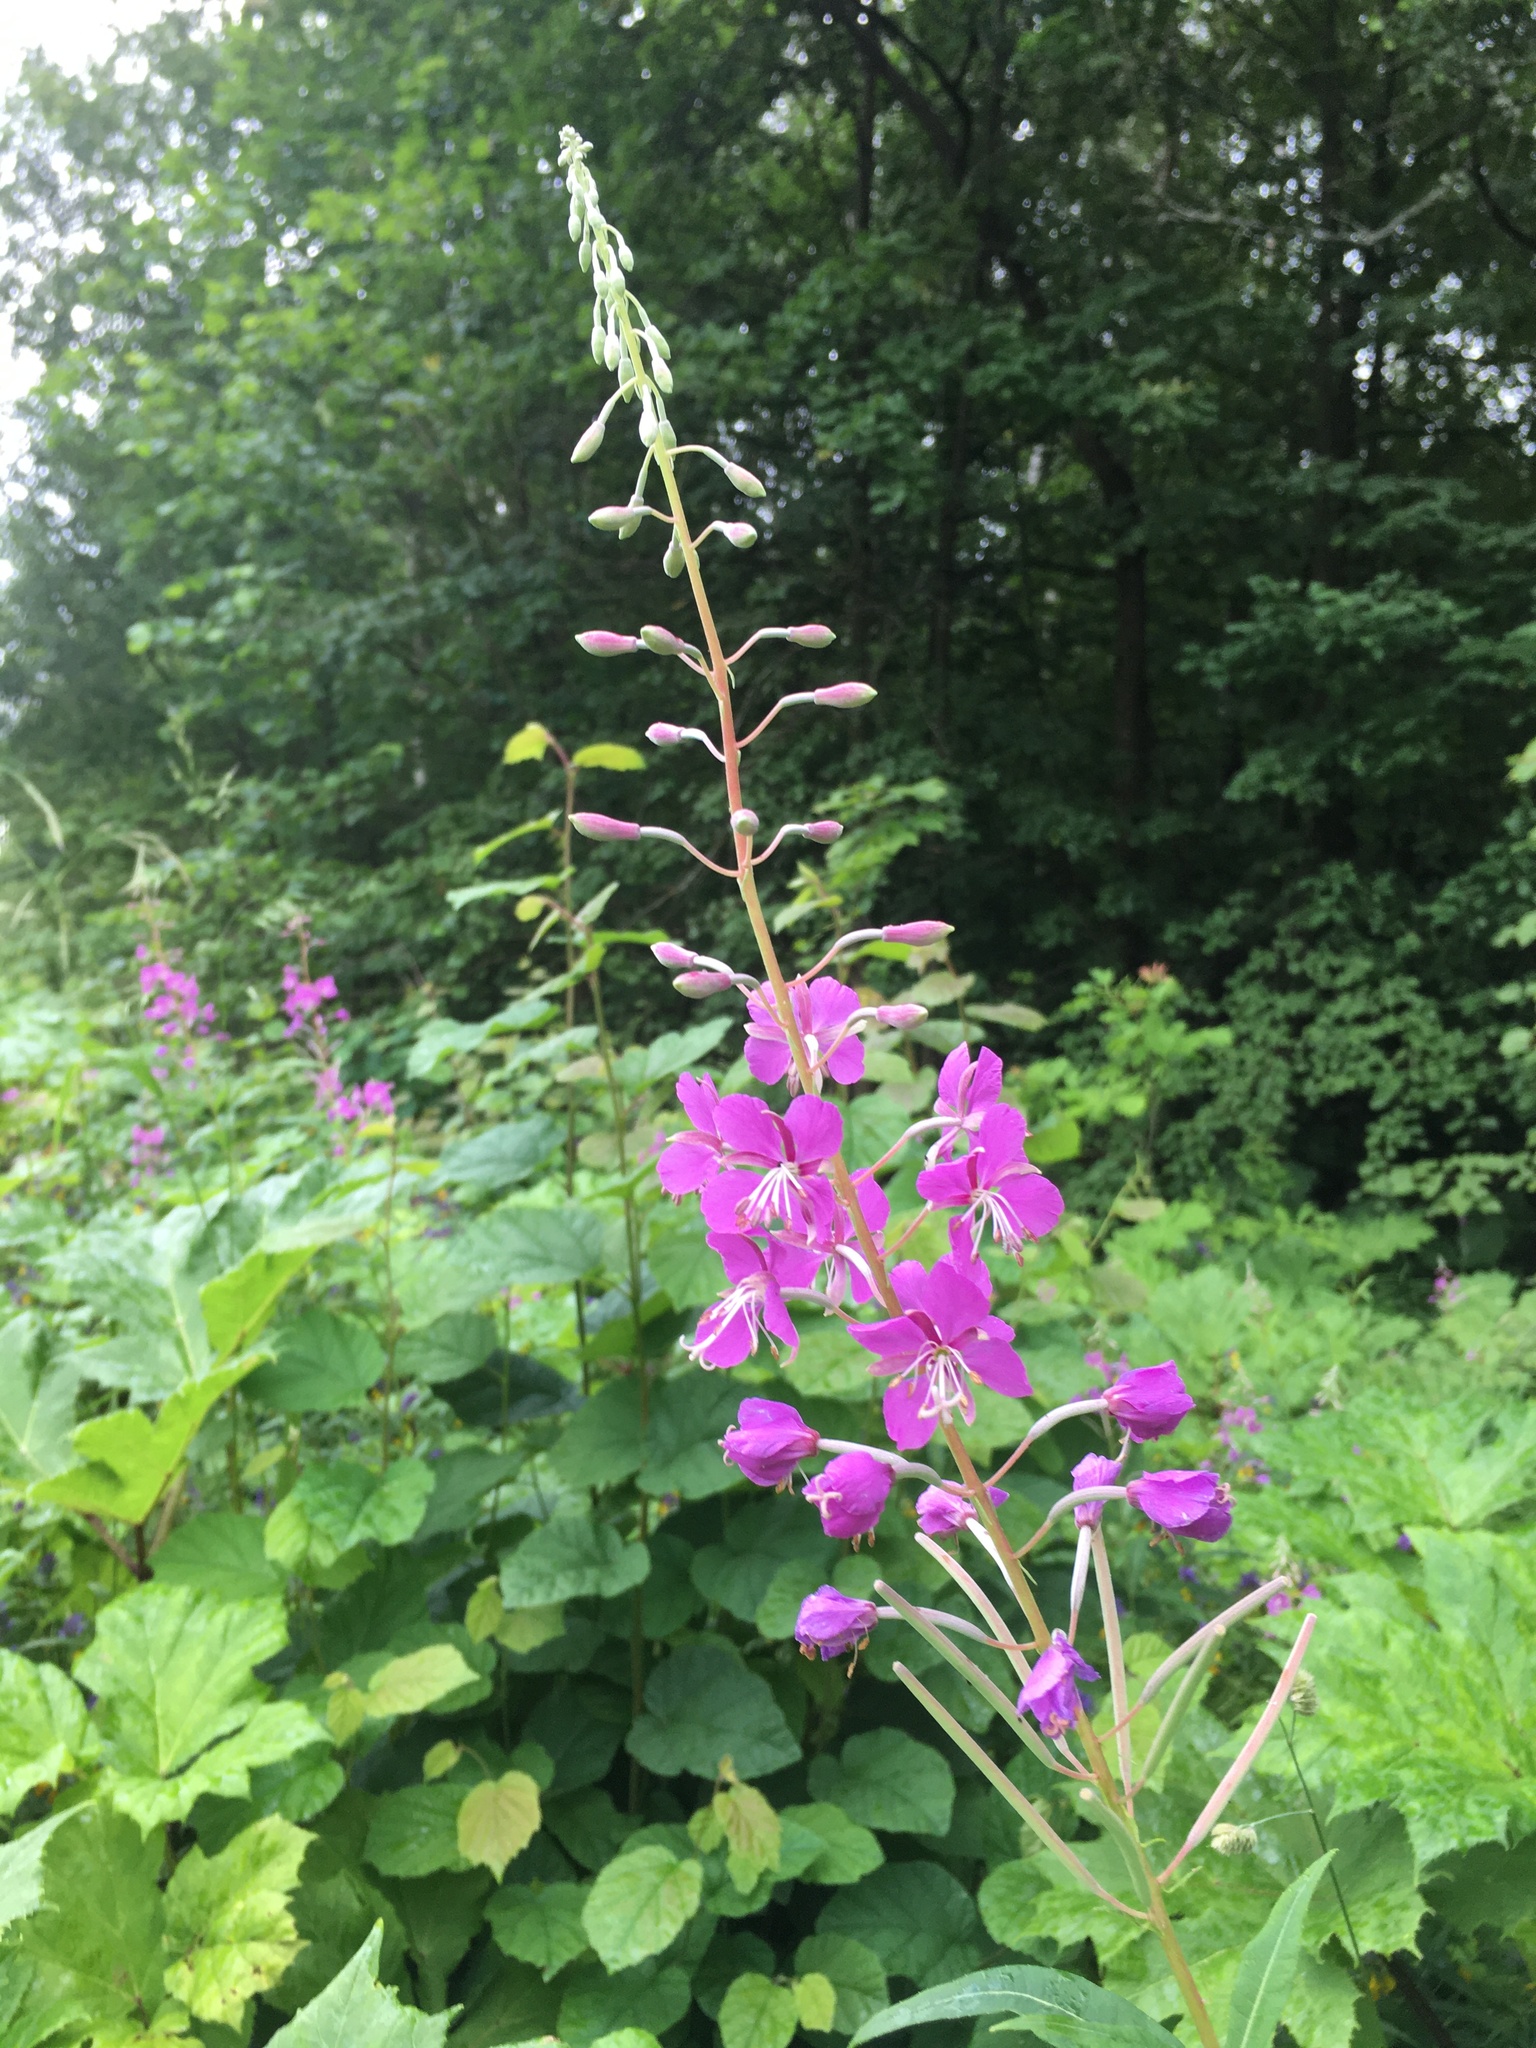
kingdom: Plantae
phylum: Tracheophyta
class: Magnoliopsida
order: Myrtales
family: Onagraceae
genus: Chamaenerion
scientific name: Chamaenerion angustifolium
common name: Fireweed
